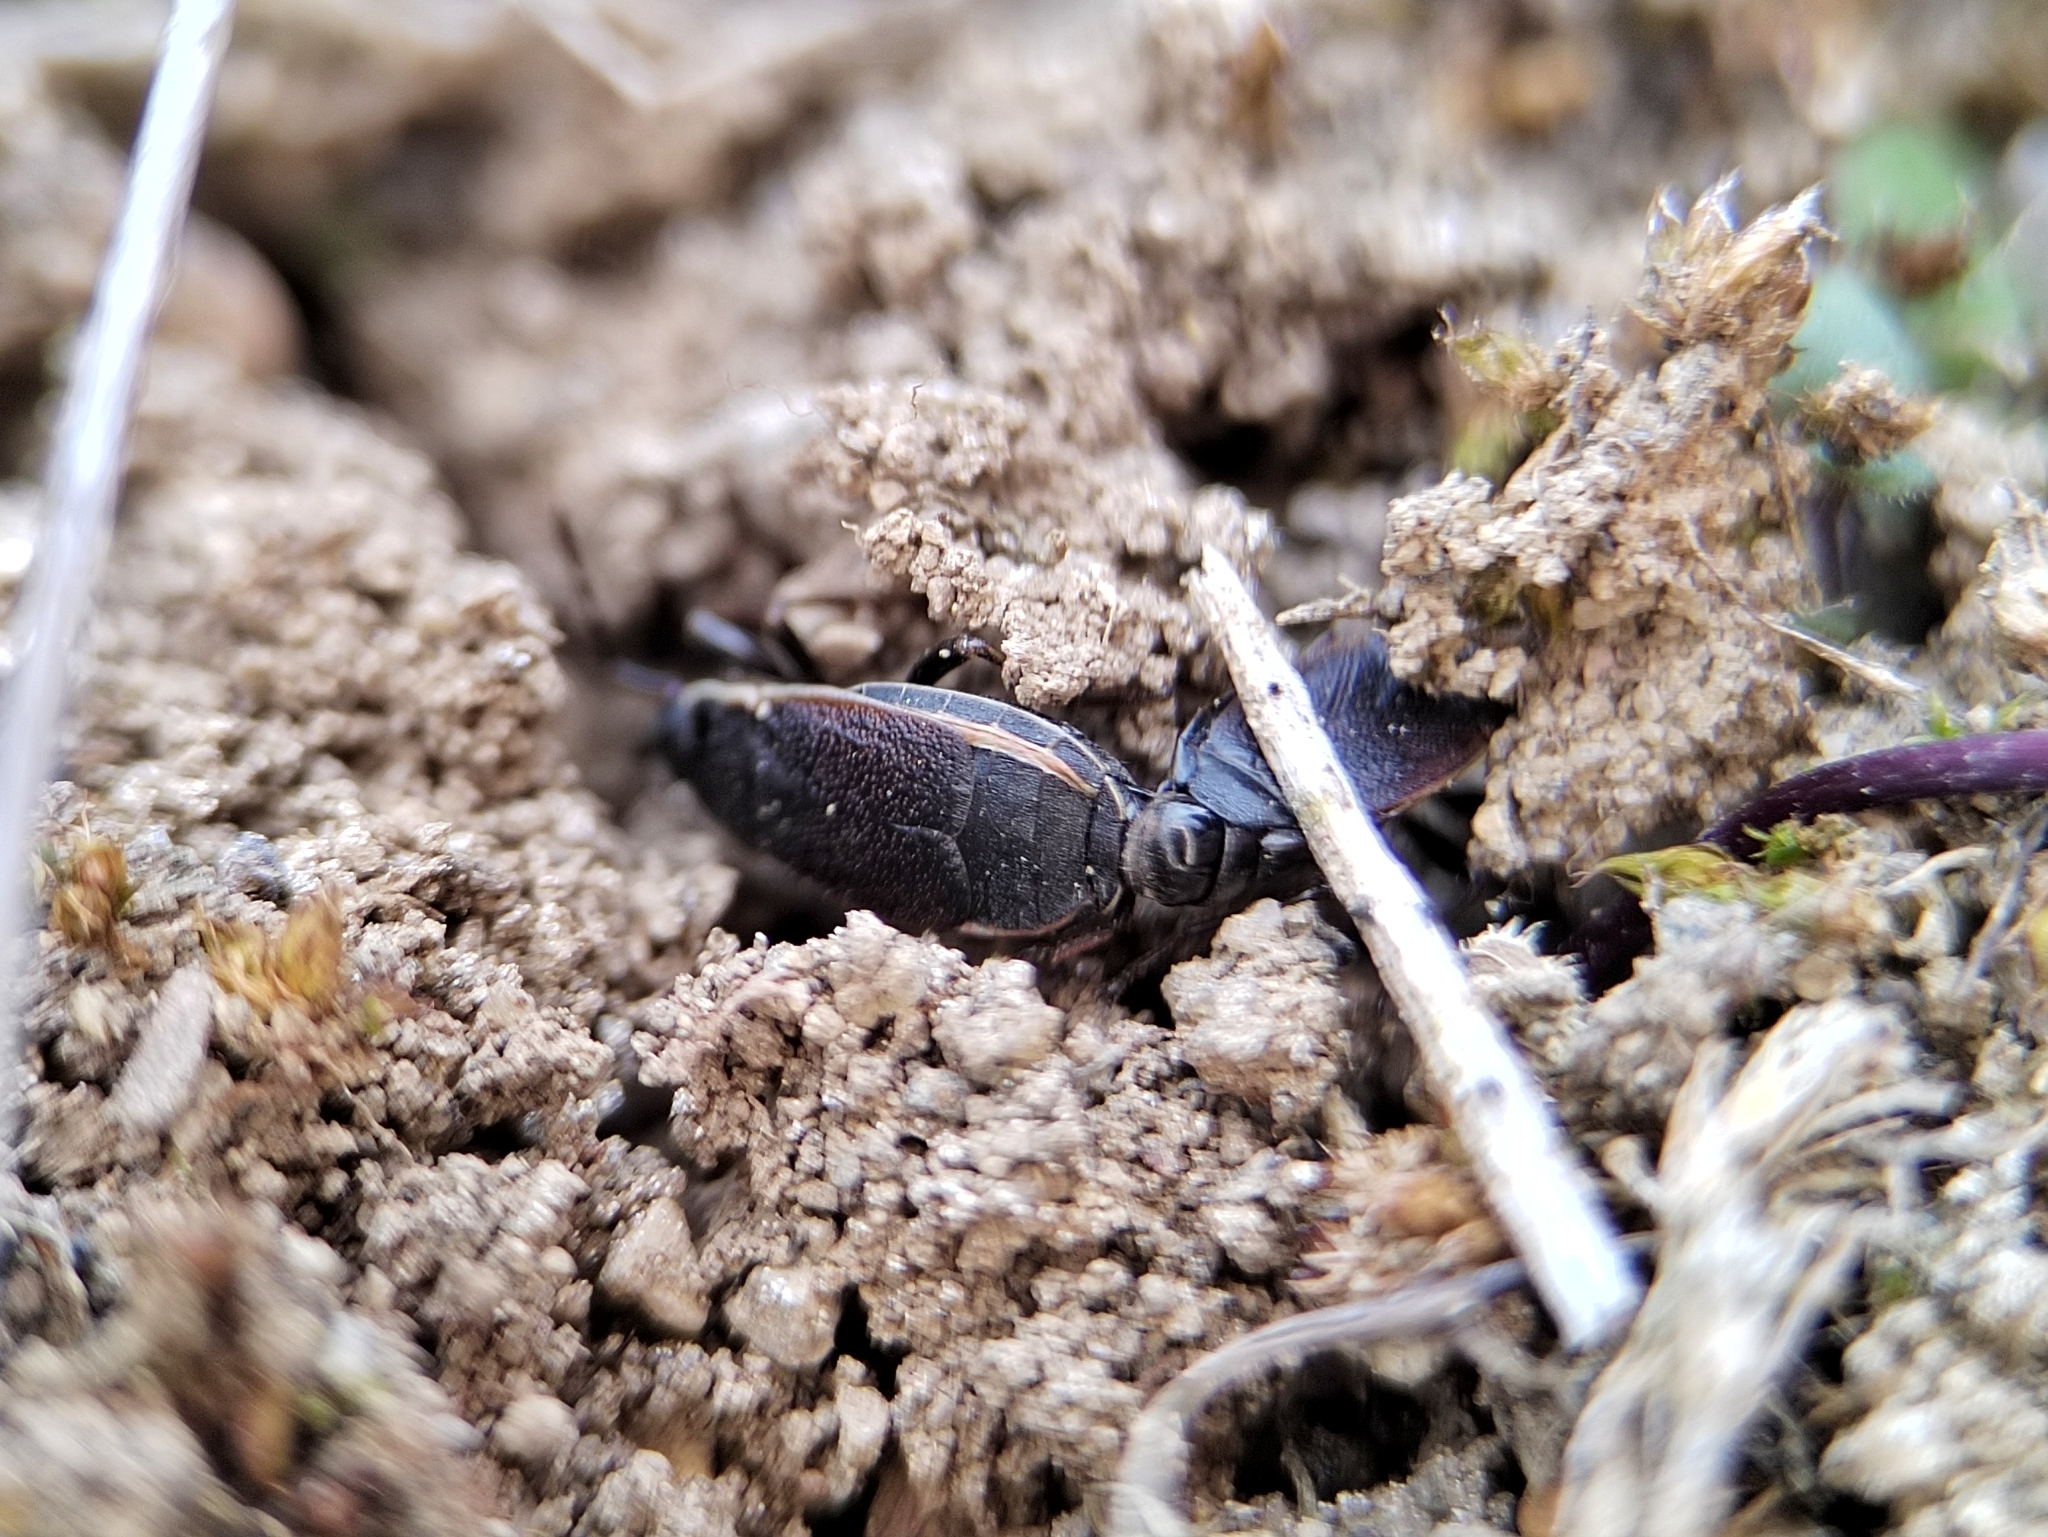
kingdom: Animalia
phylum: Arthropoda
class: Insecta
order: Hemiptera
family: Pyrrhocoridae
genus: Pyrrhocoris
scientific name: Pyrrhocoris marginatus
